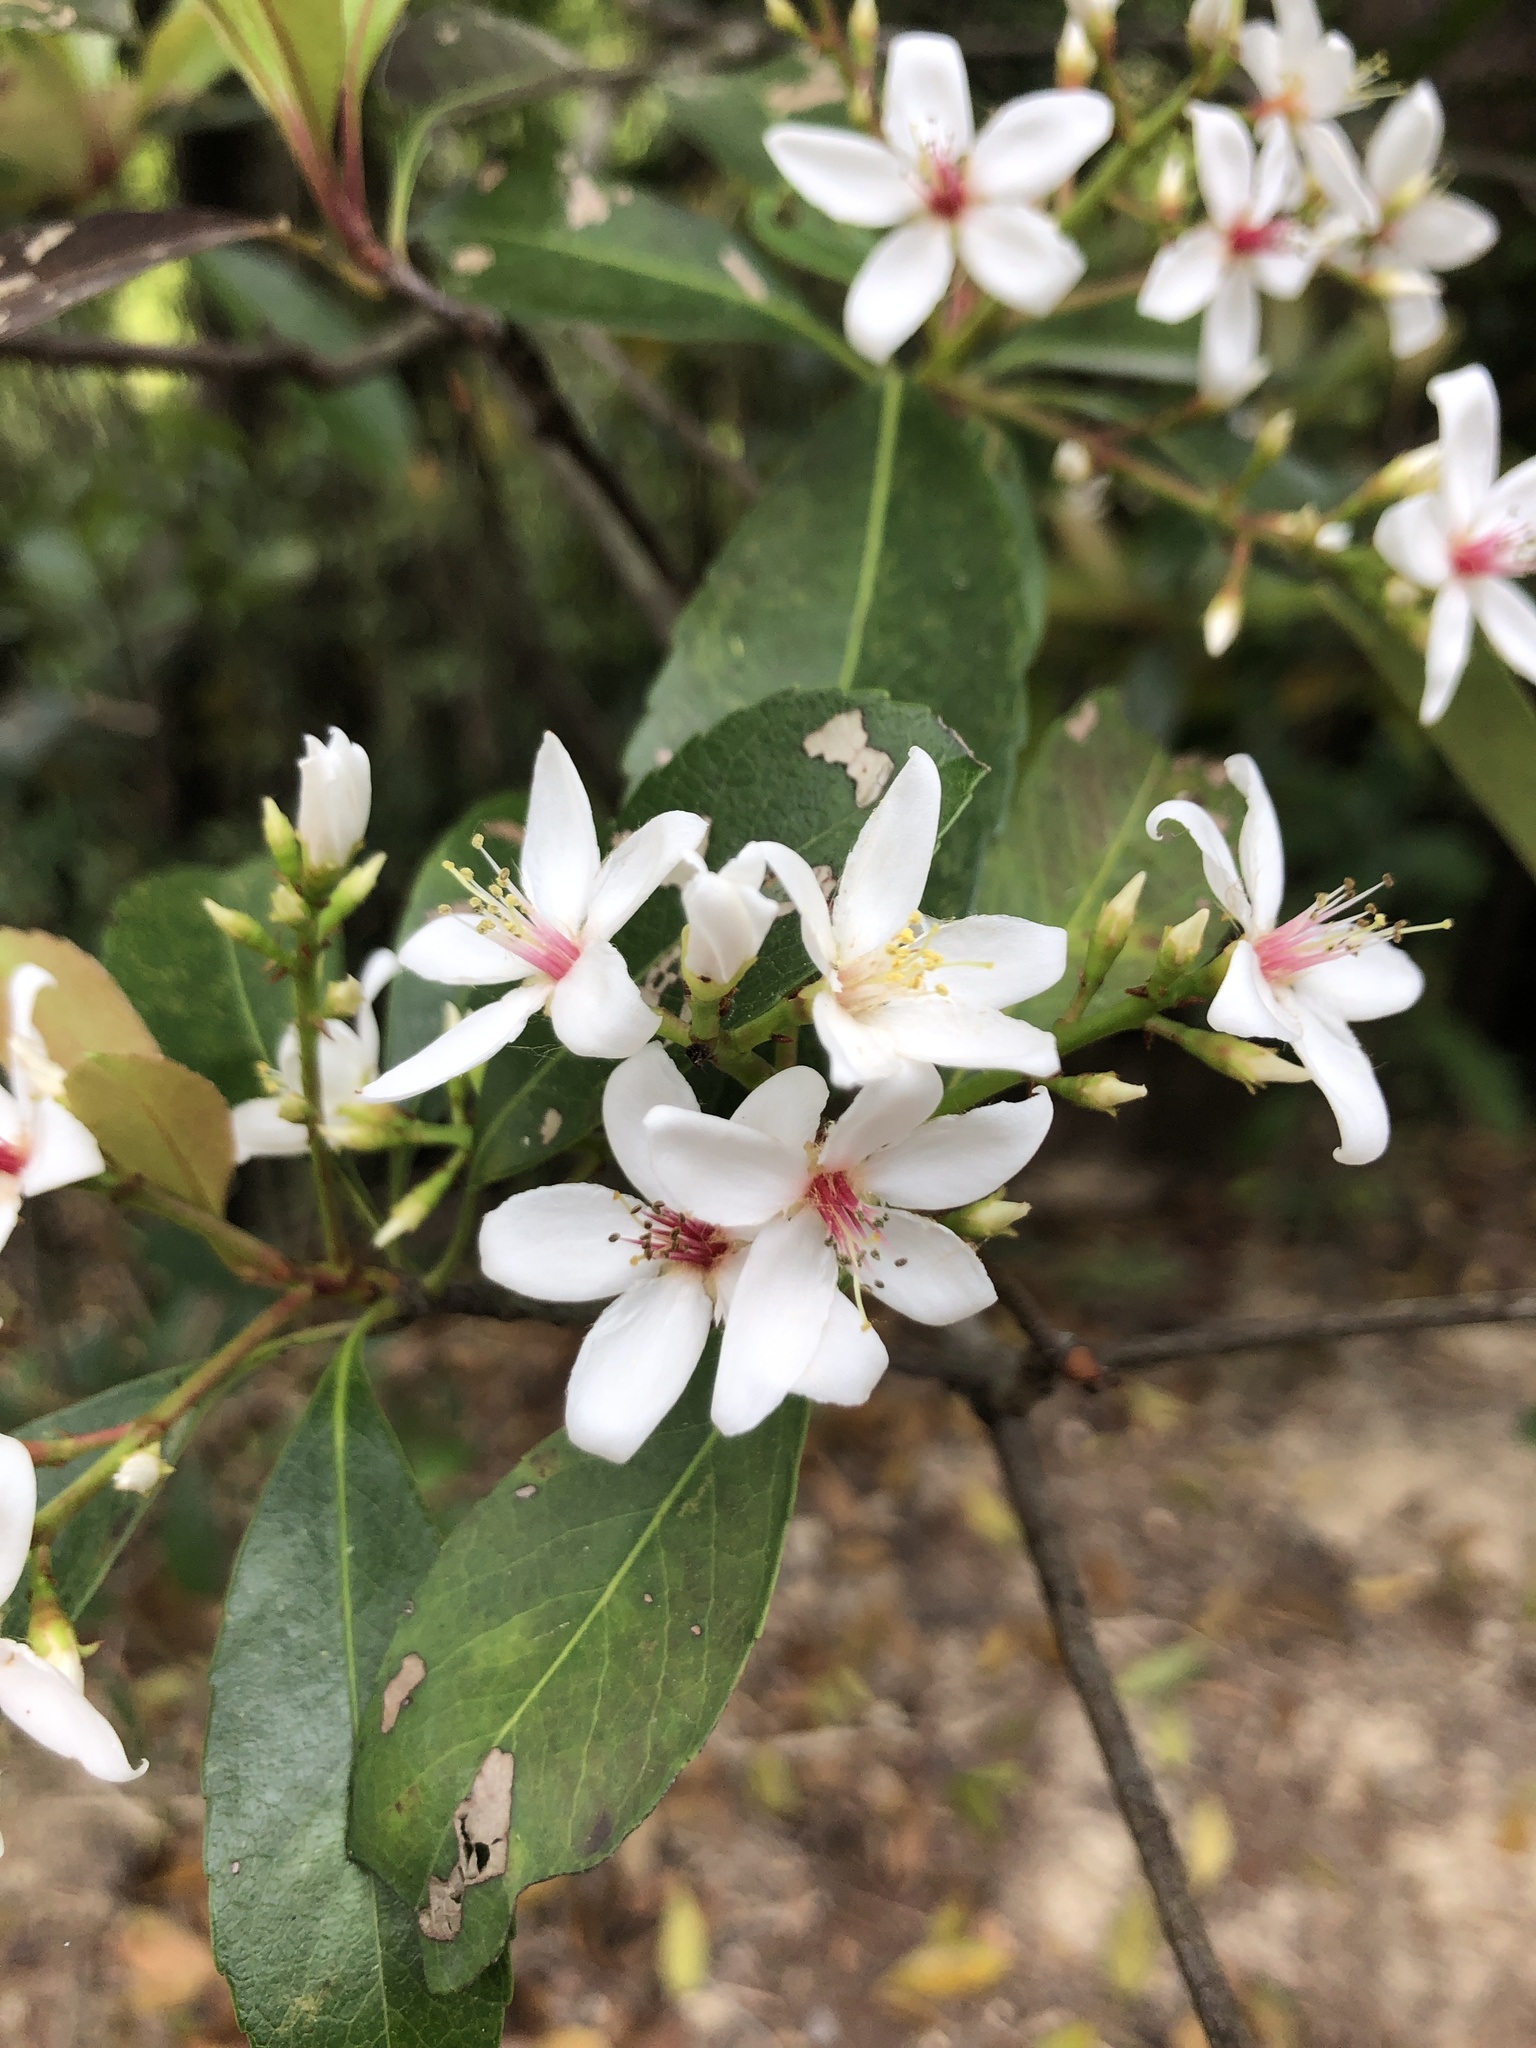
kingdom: Plantae
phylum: Tracheophyta
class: Magnoliopsida
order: Rosales
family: Rosaceae
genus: Rhaphiolepis
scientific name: Rhaphiolepis indica
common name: India-hawthorn
